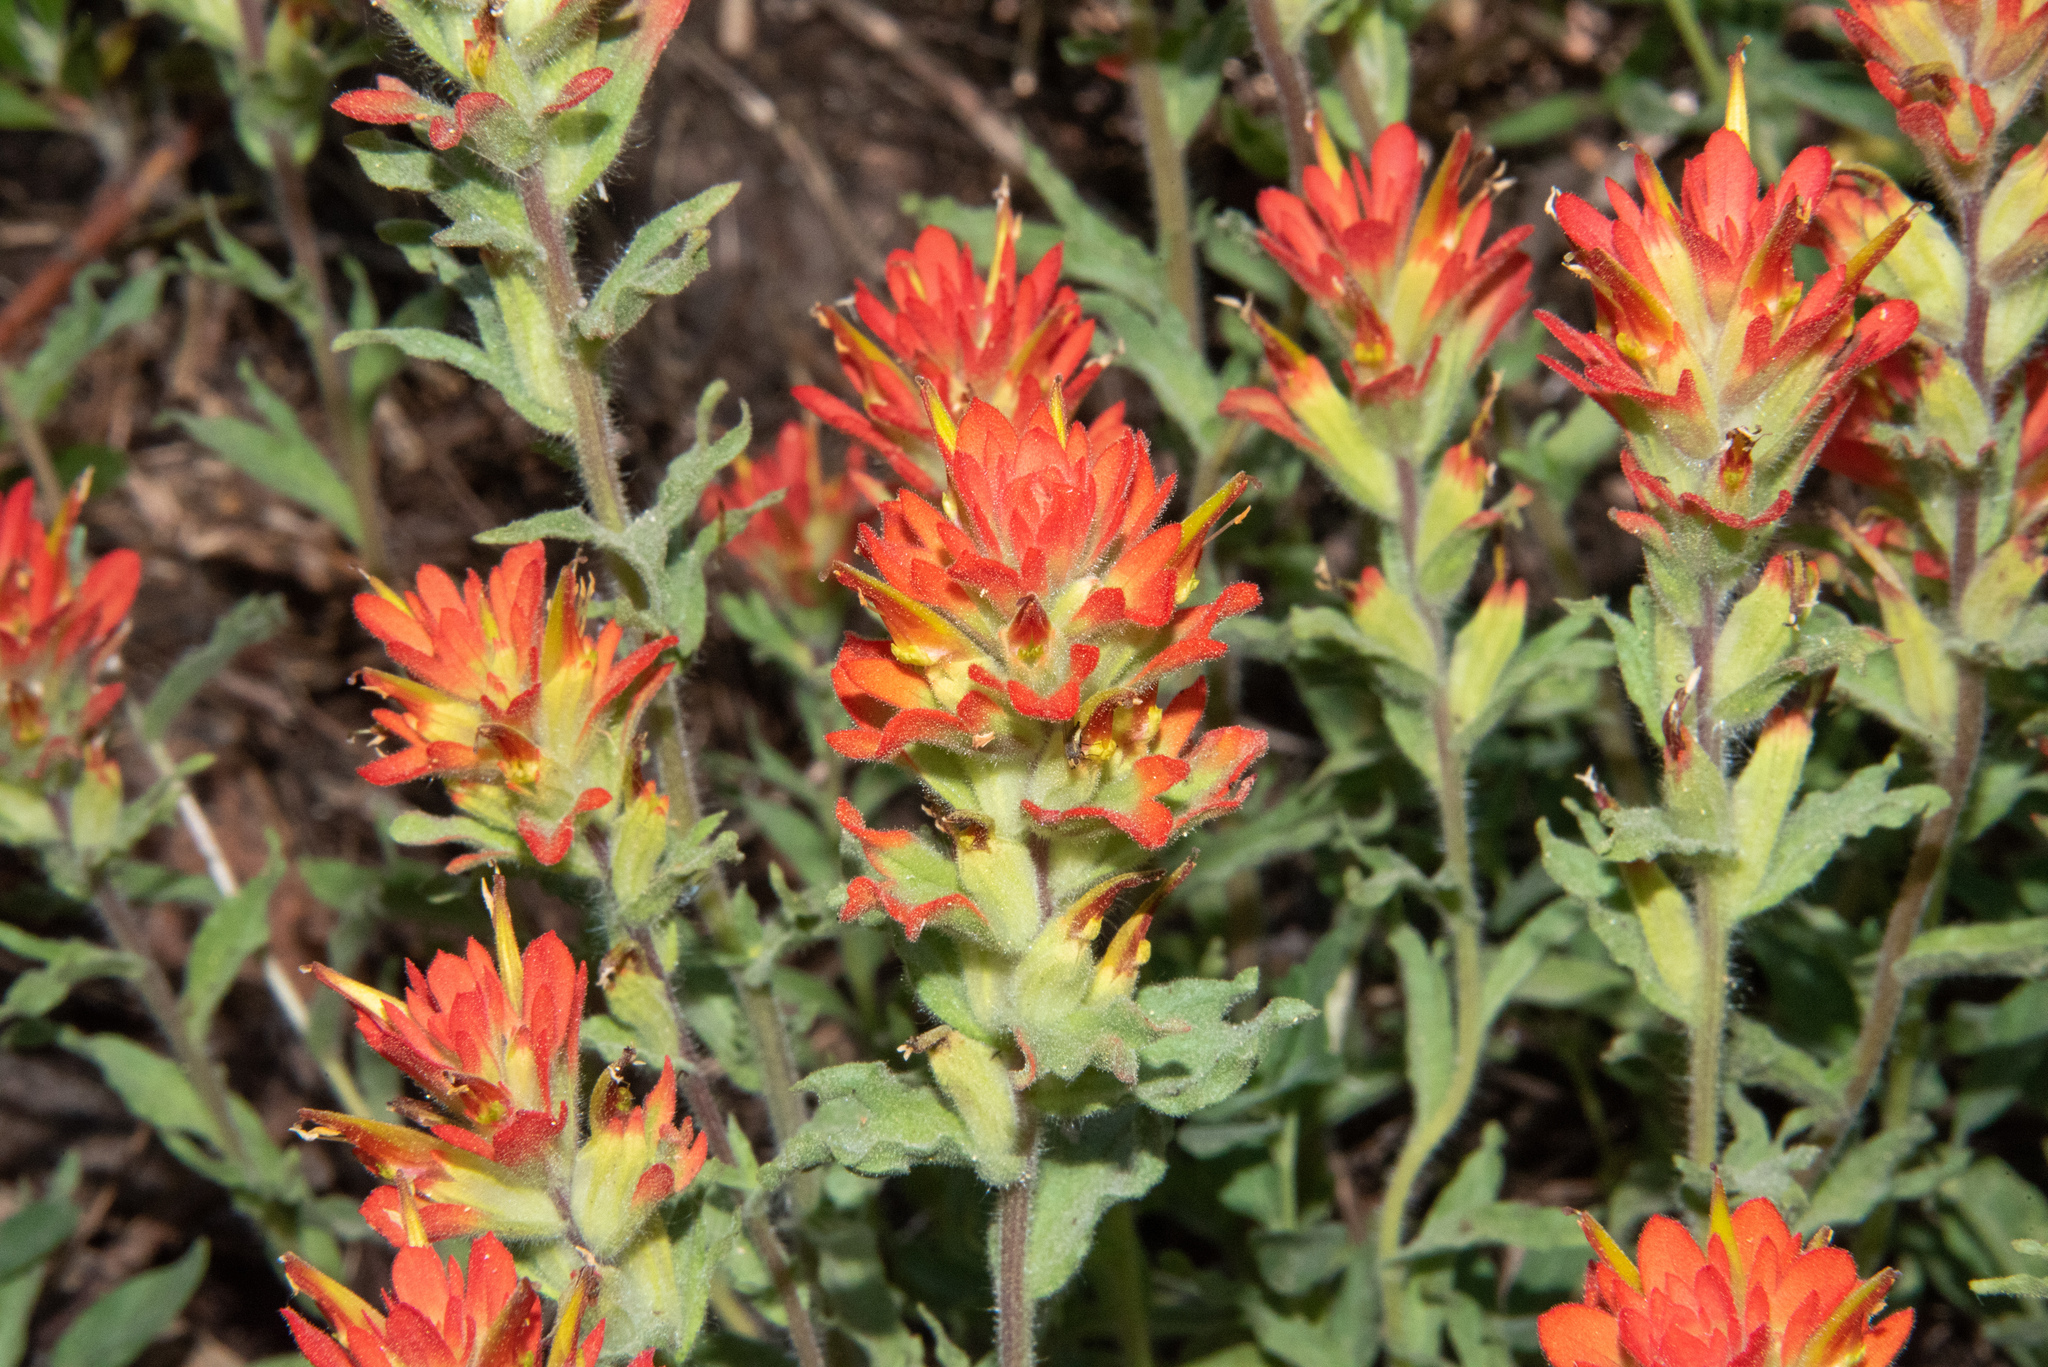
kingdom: Plantae
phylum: Tracheophyta
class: Magnoliopsida
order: Lamiales
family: Orobanchaceae
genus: Castilleja
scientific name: Castilleja applegatei
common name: Wavy-leaf paintbrush
